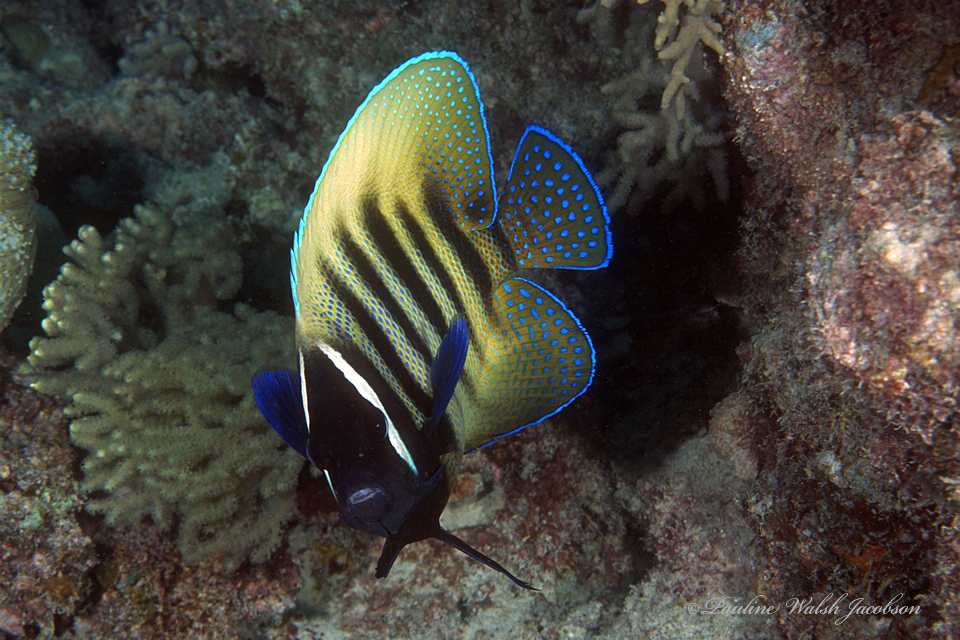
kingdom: Animalia
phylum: Chordata
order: Perciformes
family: Pomacanthidae
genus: Pomacanthus
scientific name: Pomacanthus sexstriatus
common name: Six-banded angelfish
